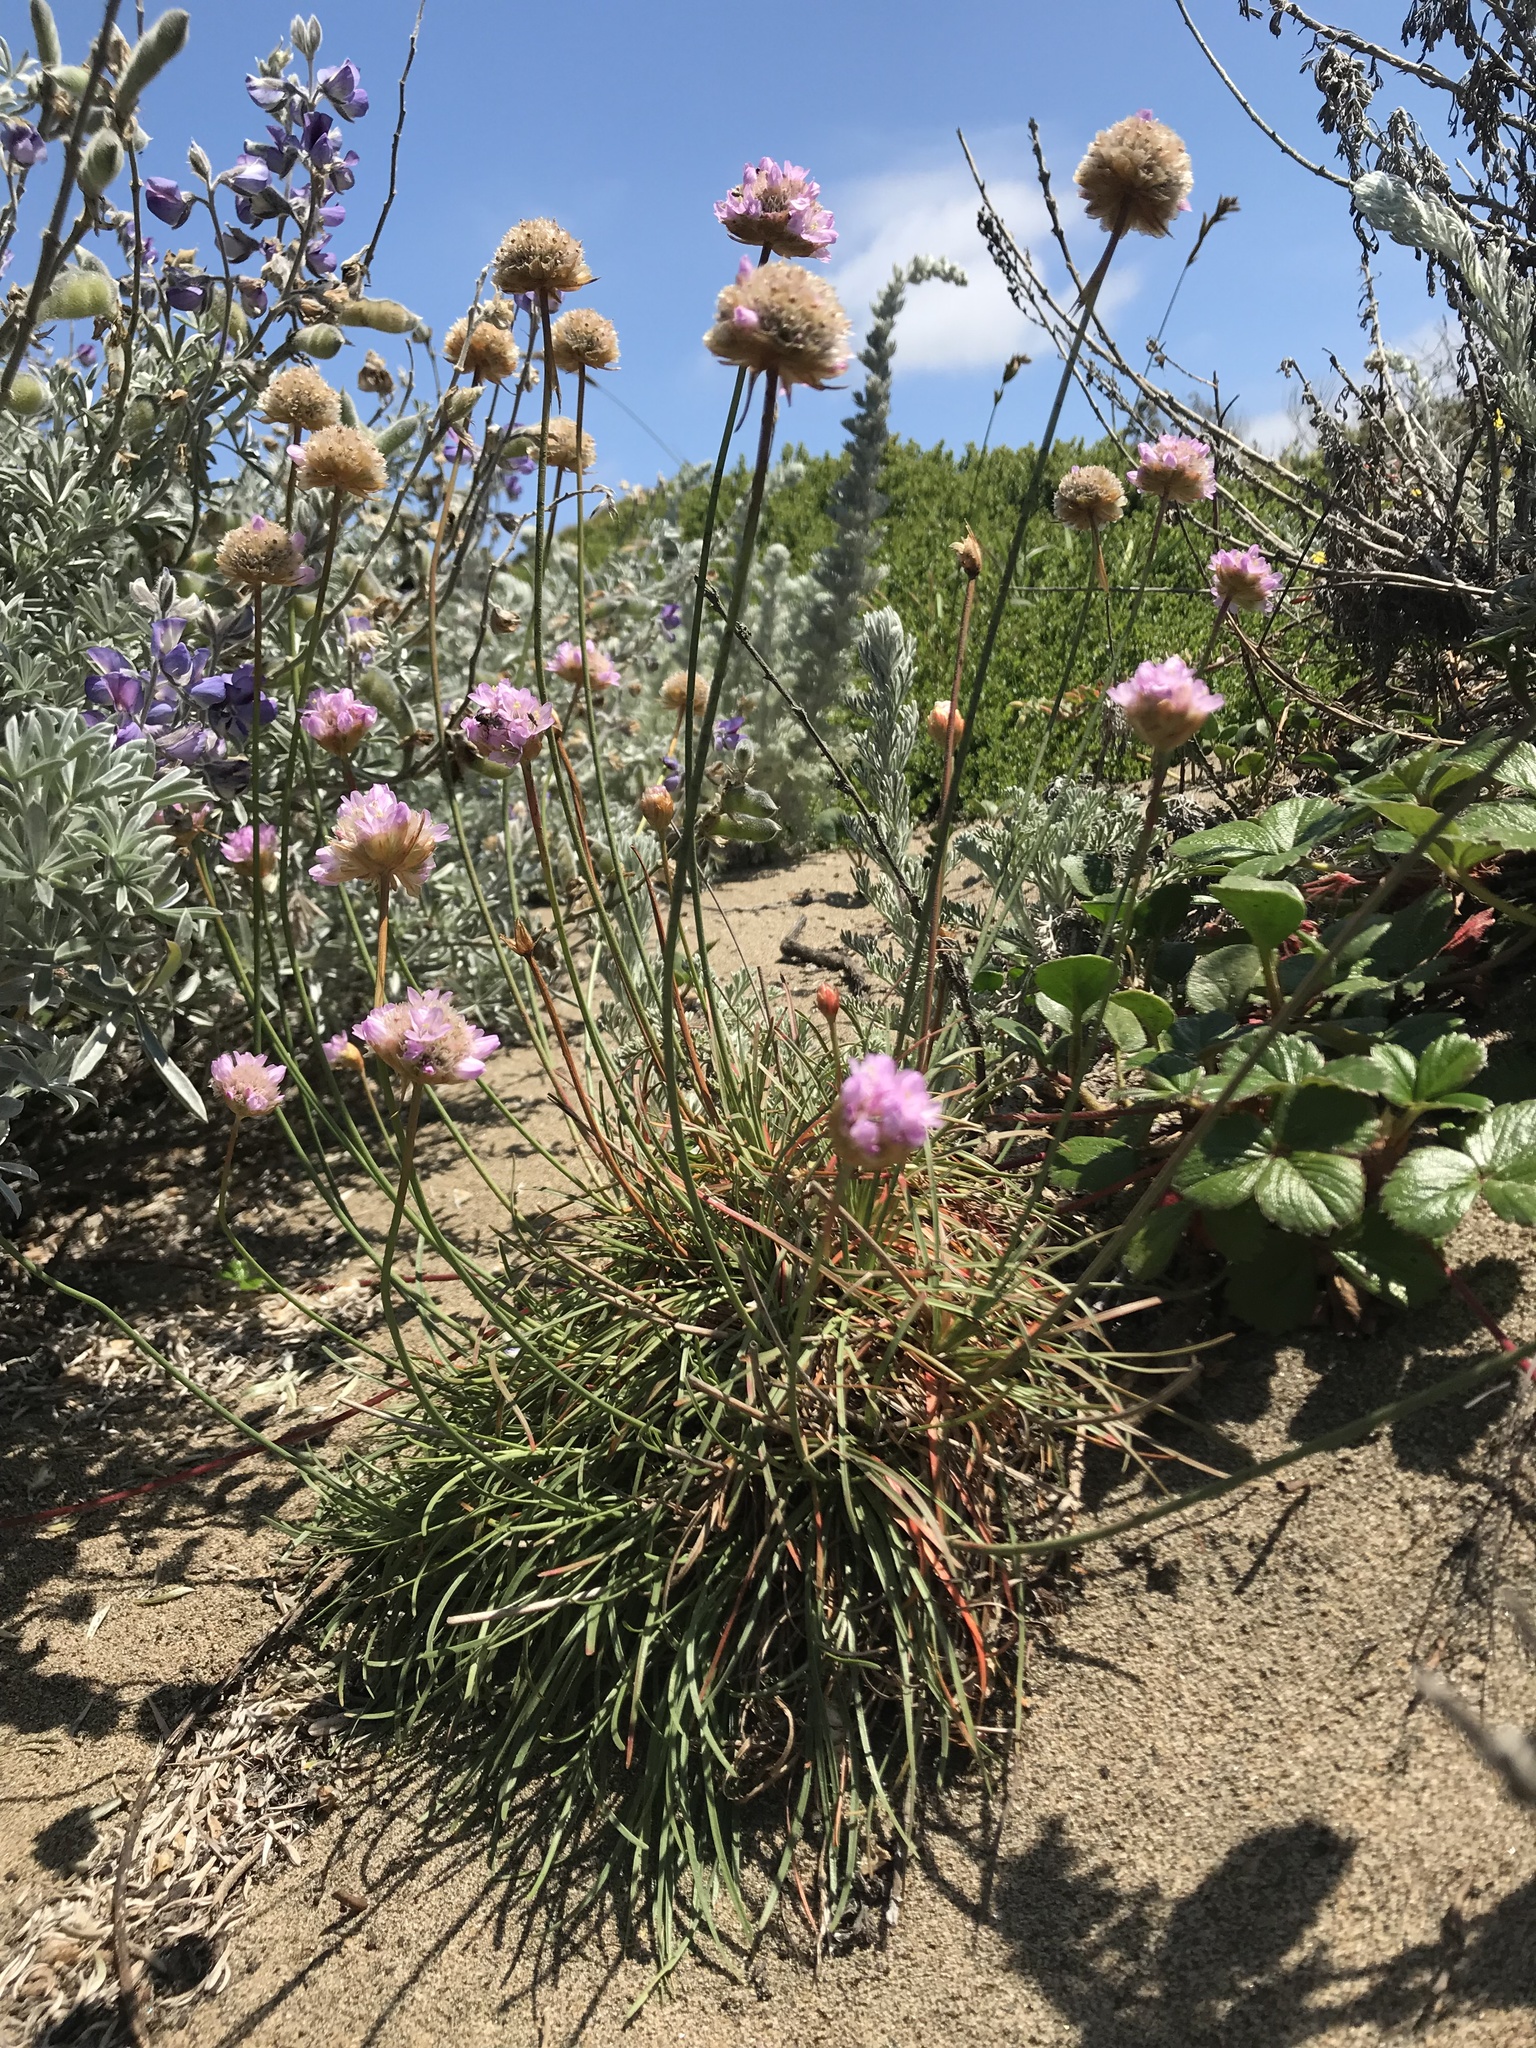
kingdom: Plantae
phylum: Tracheophyta
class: Magnoliopsida
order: Caryophyllales
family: Plumbaginaceae
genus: Armeria
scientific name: Armeria maritima
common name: Thrift
